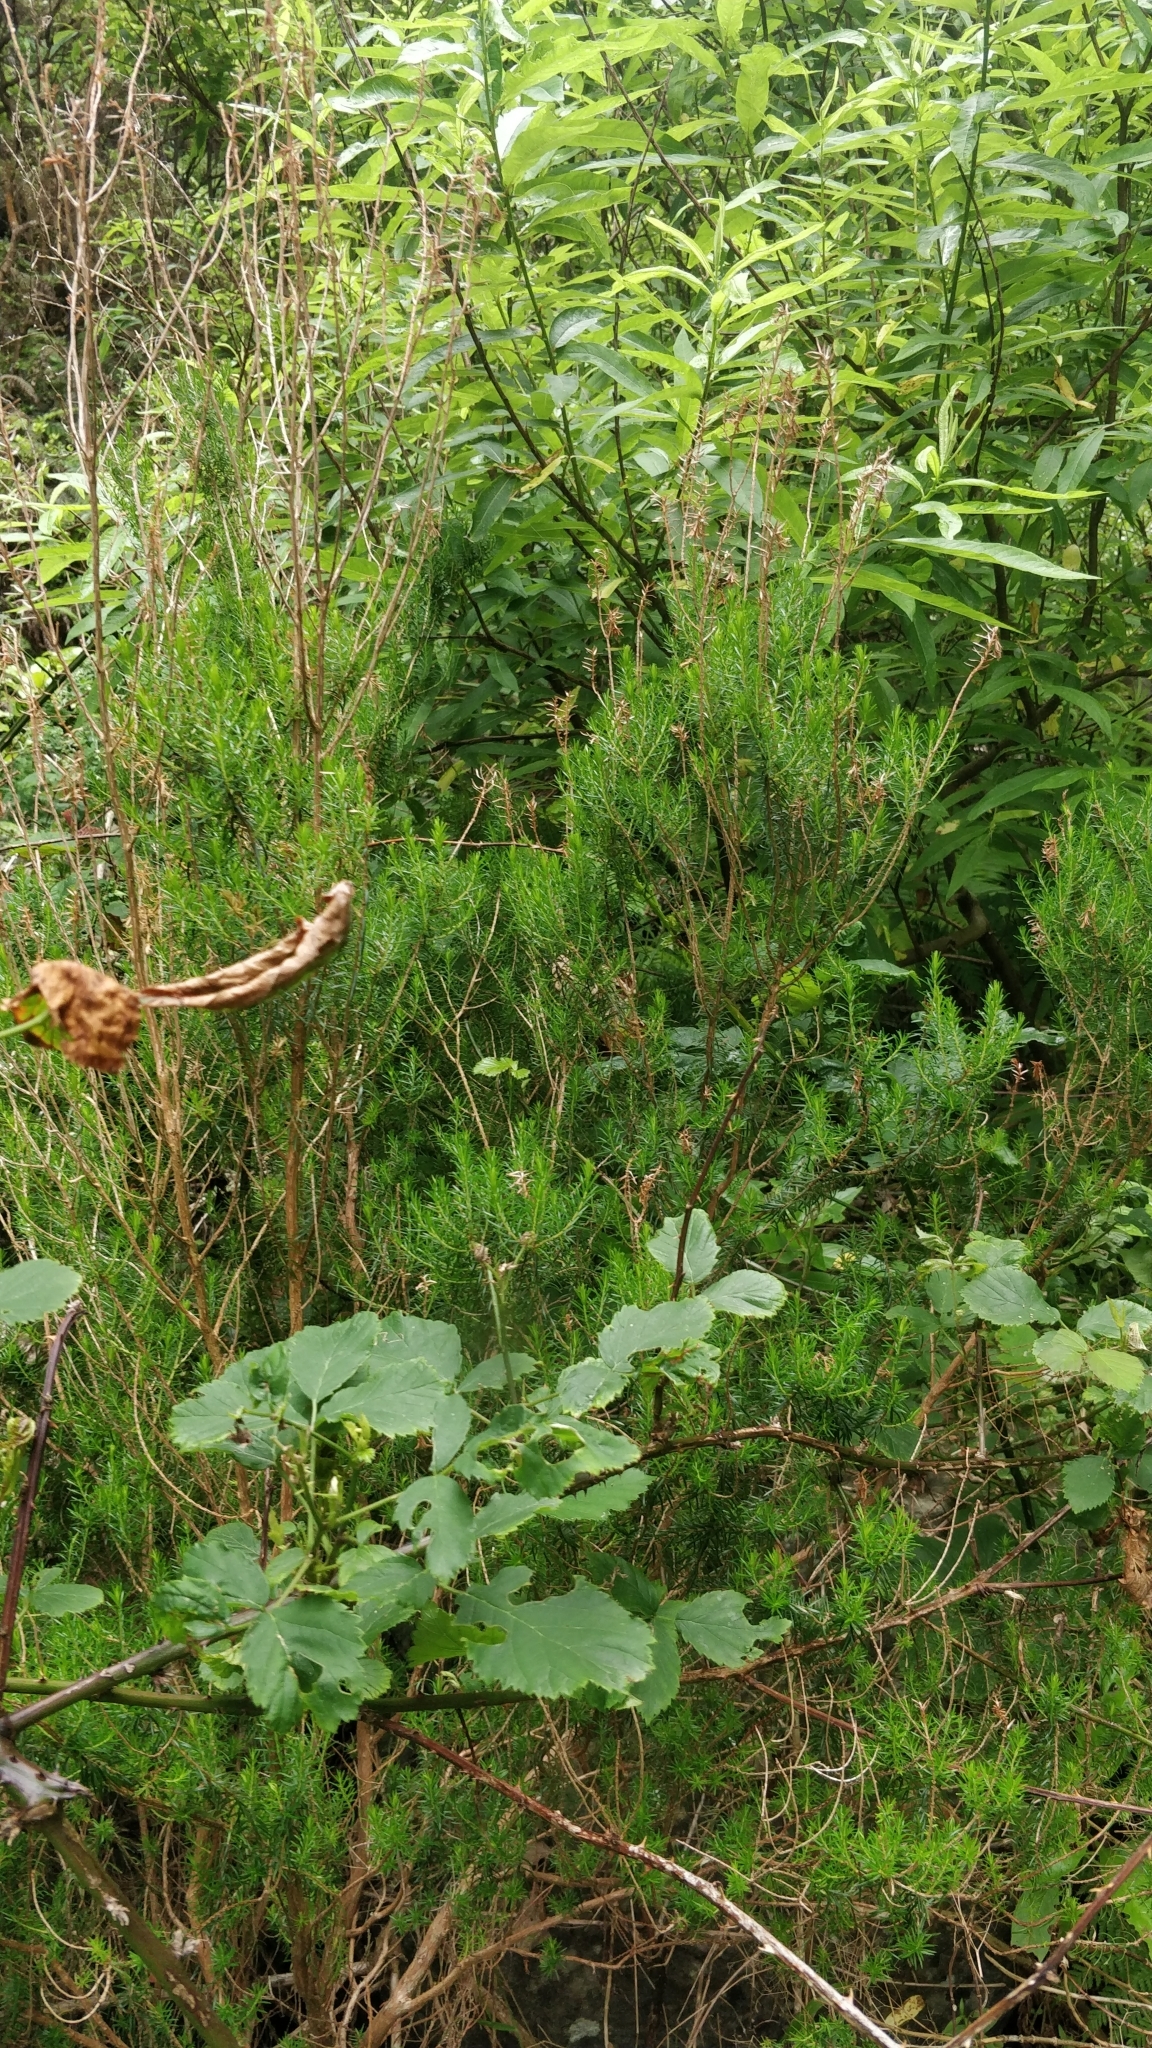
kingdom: Plantae
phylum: Tracheophyta
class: Magnoliopsida
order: Ericales
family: Ericaceae
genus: Erica
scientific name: Erica platycodon
